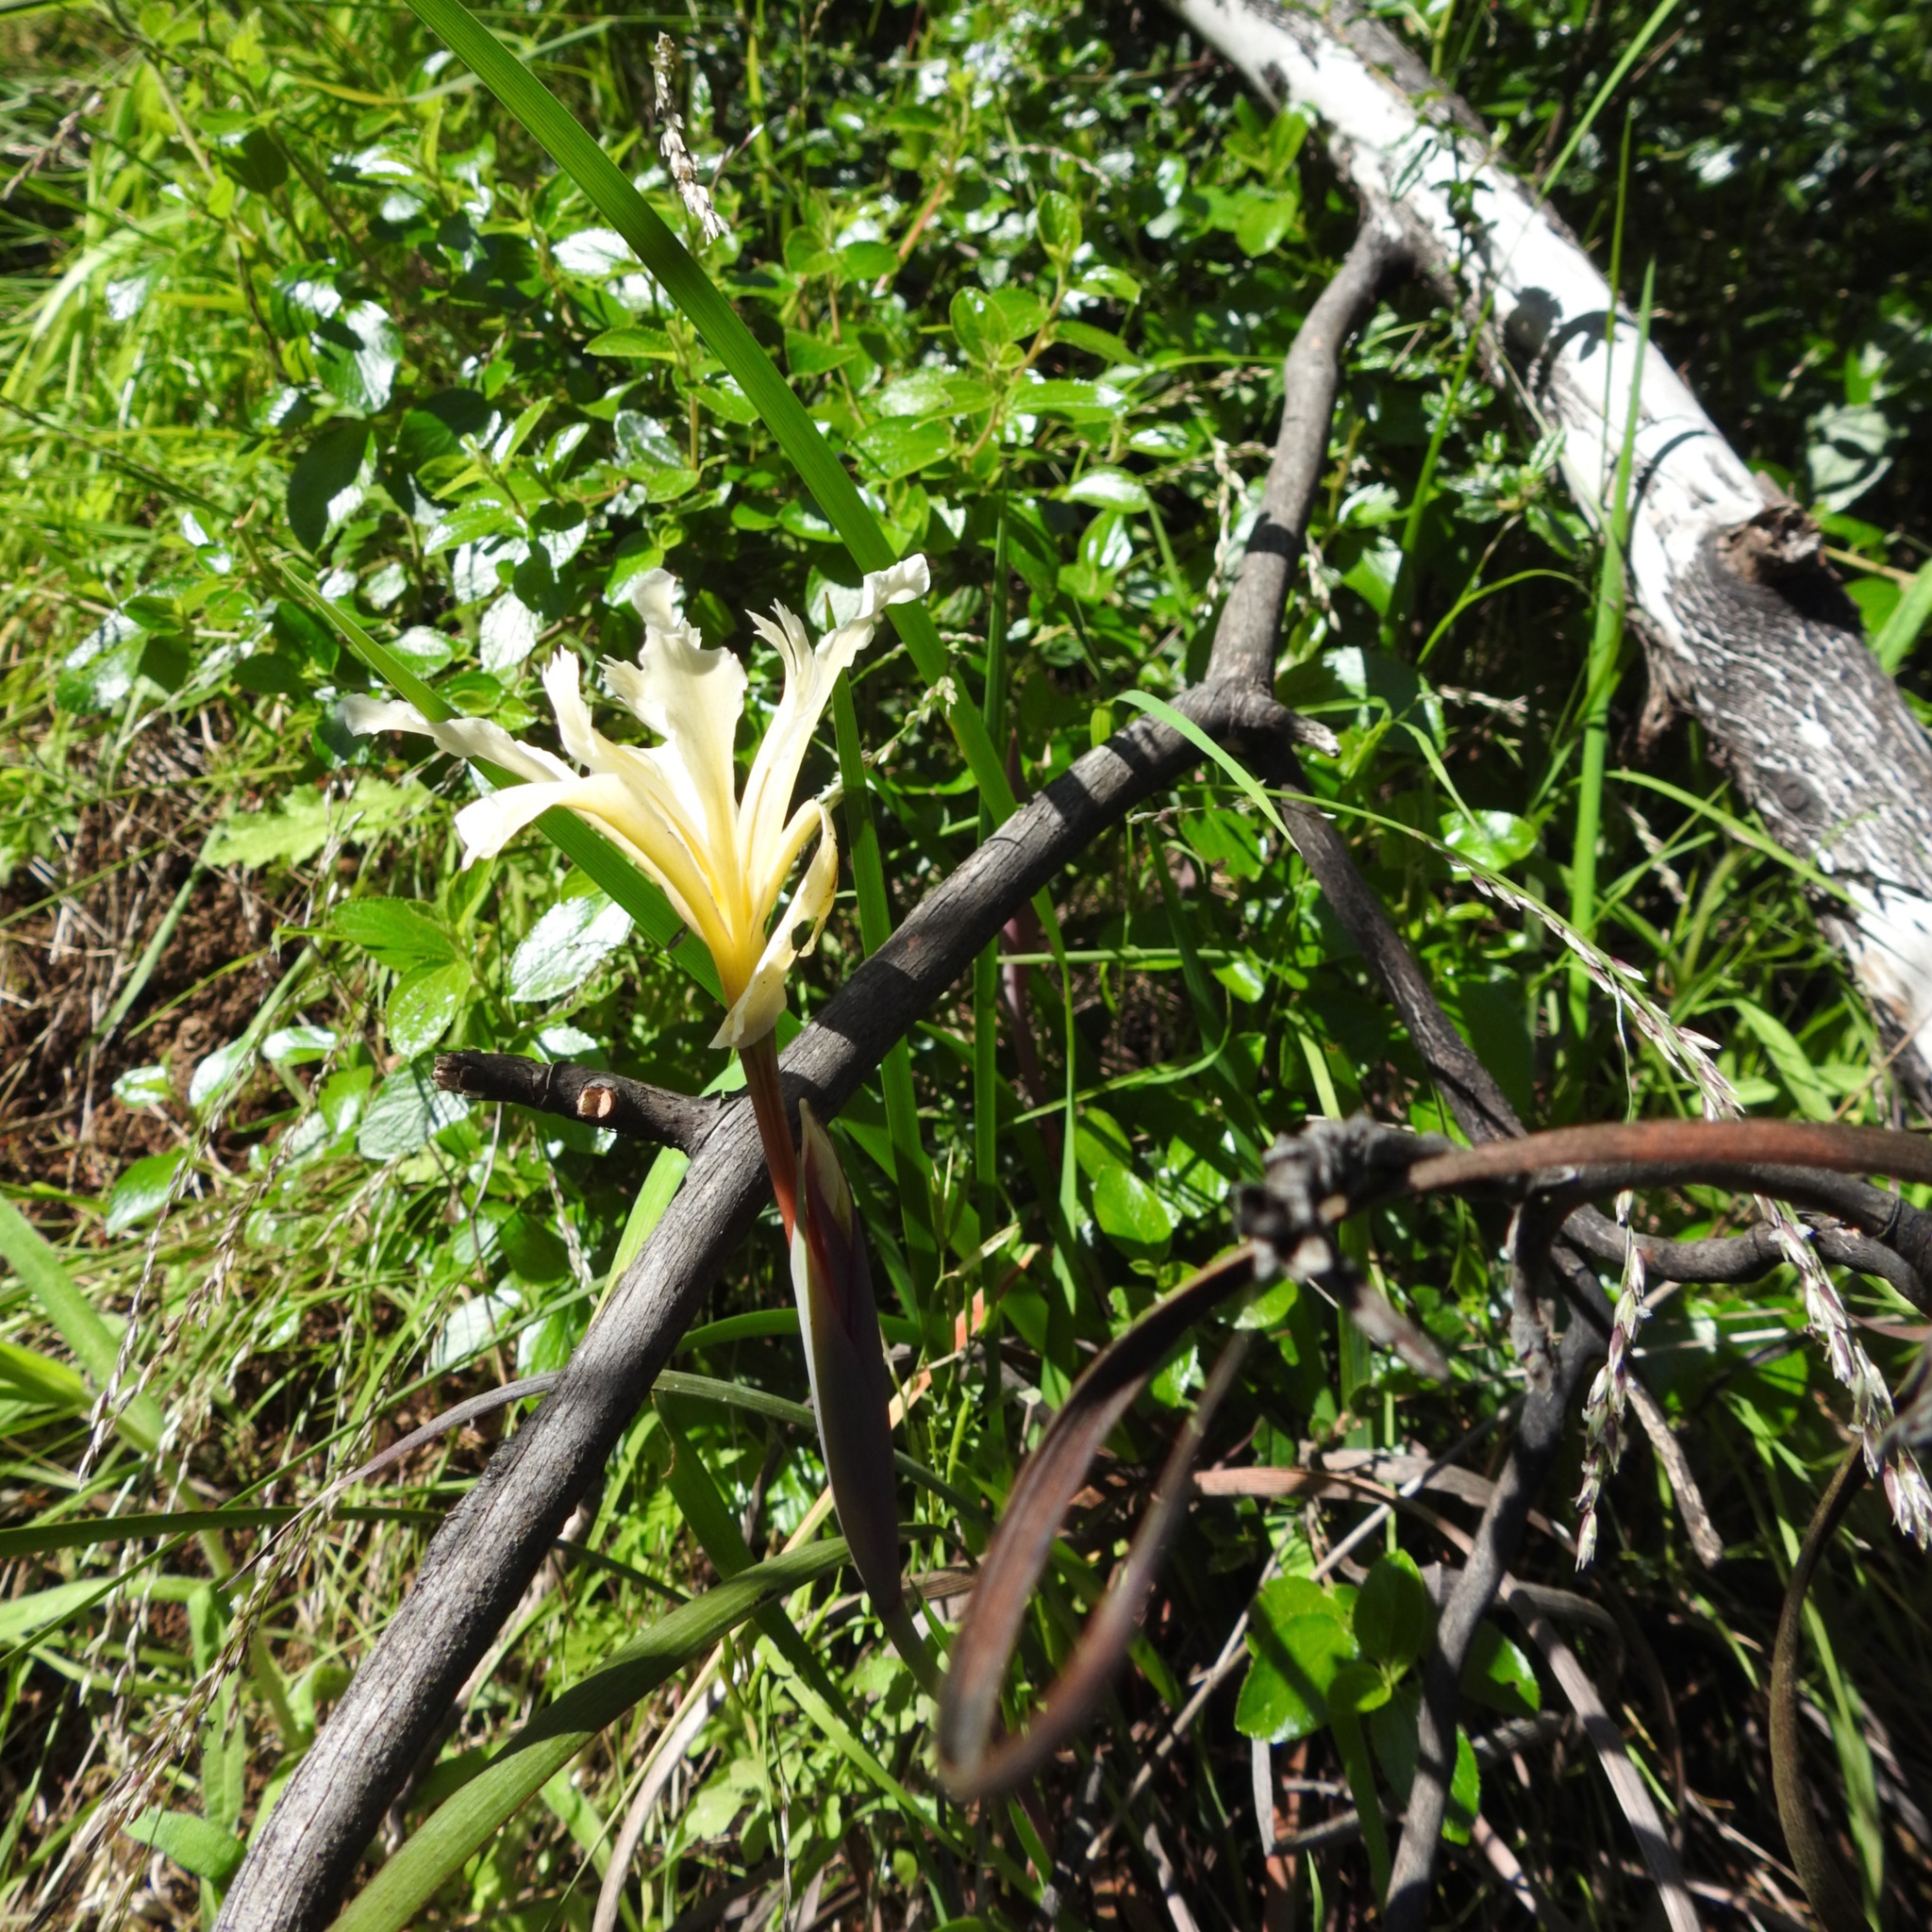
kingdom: Plantae
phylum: Tracheophyta
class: Liliopsida
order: Asparagales
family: Iridaceae
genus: Iris
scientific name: Iris fernaldii
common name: Fernald's iris
